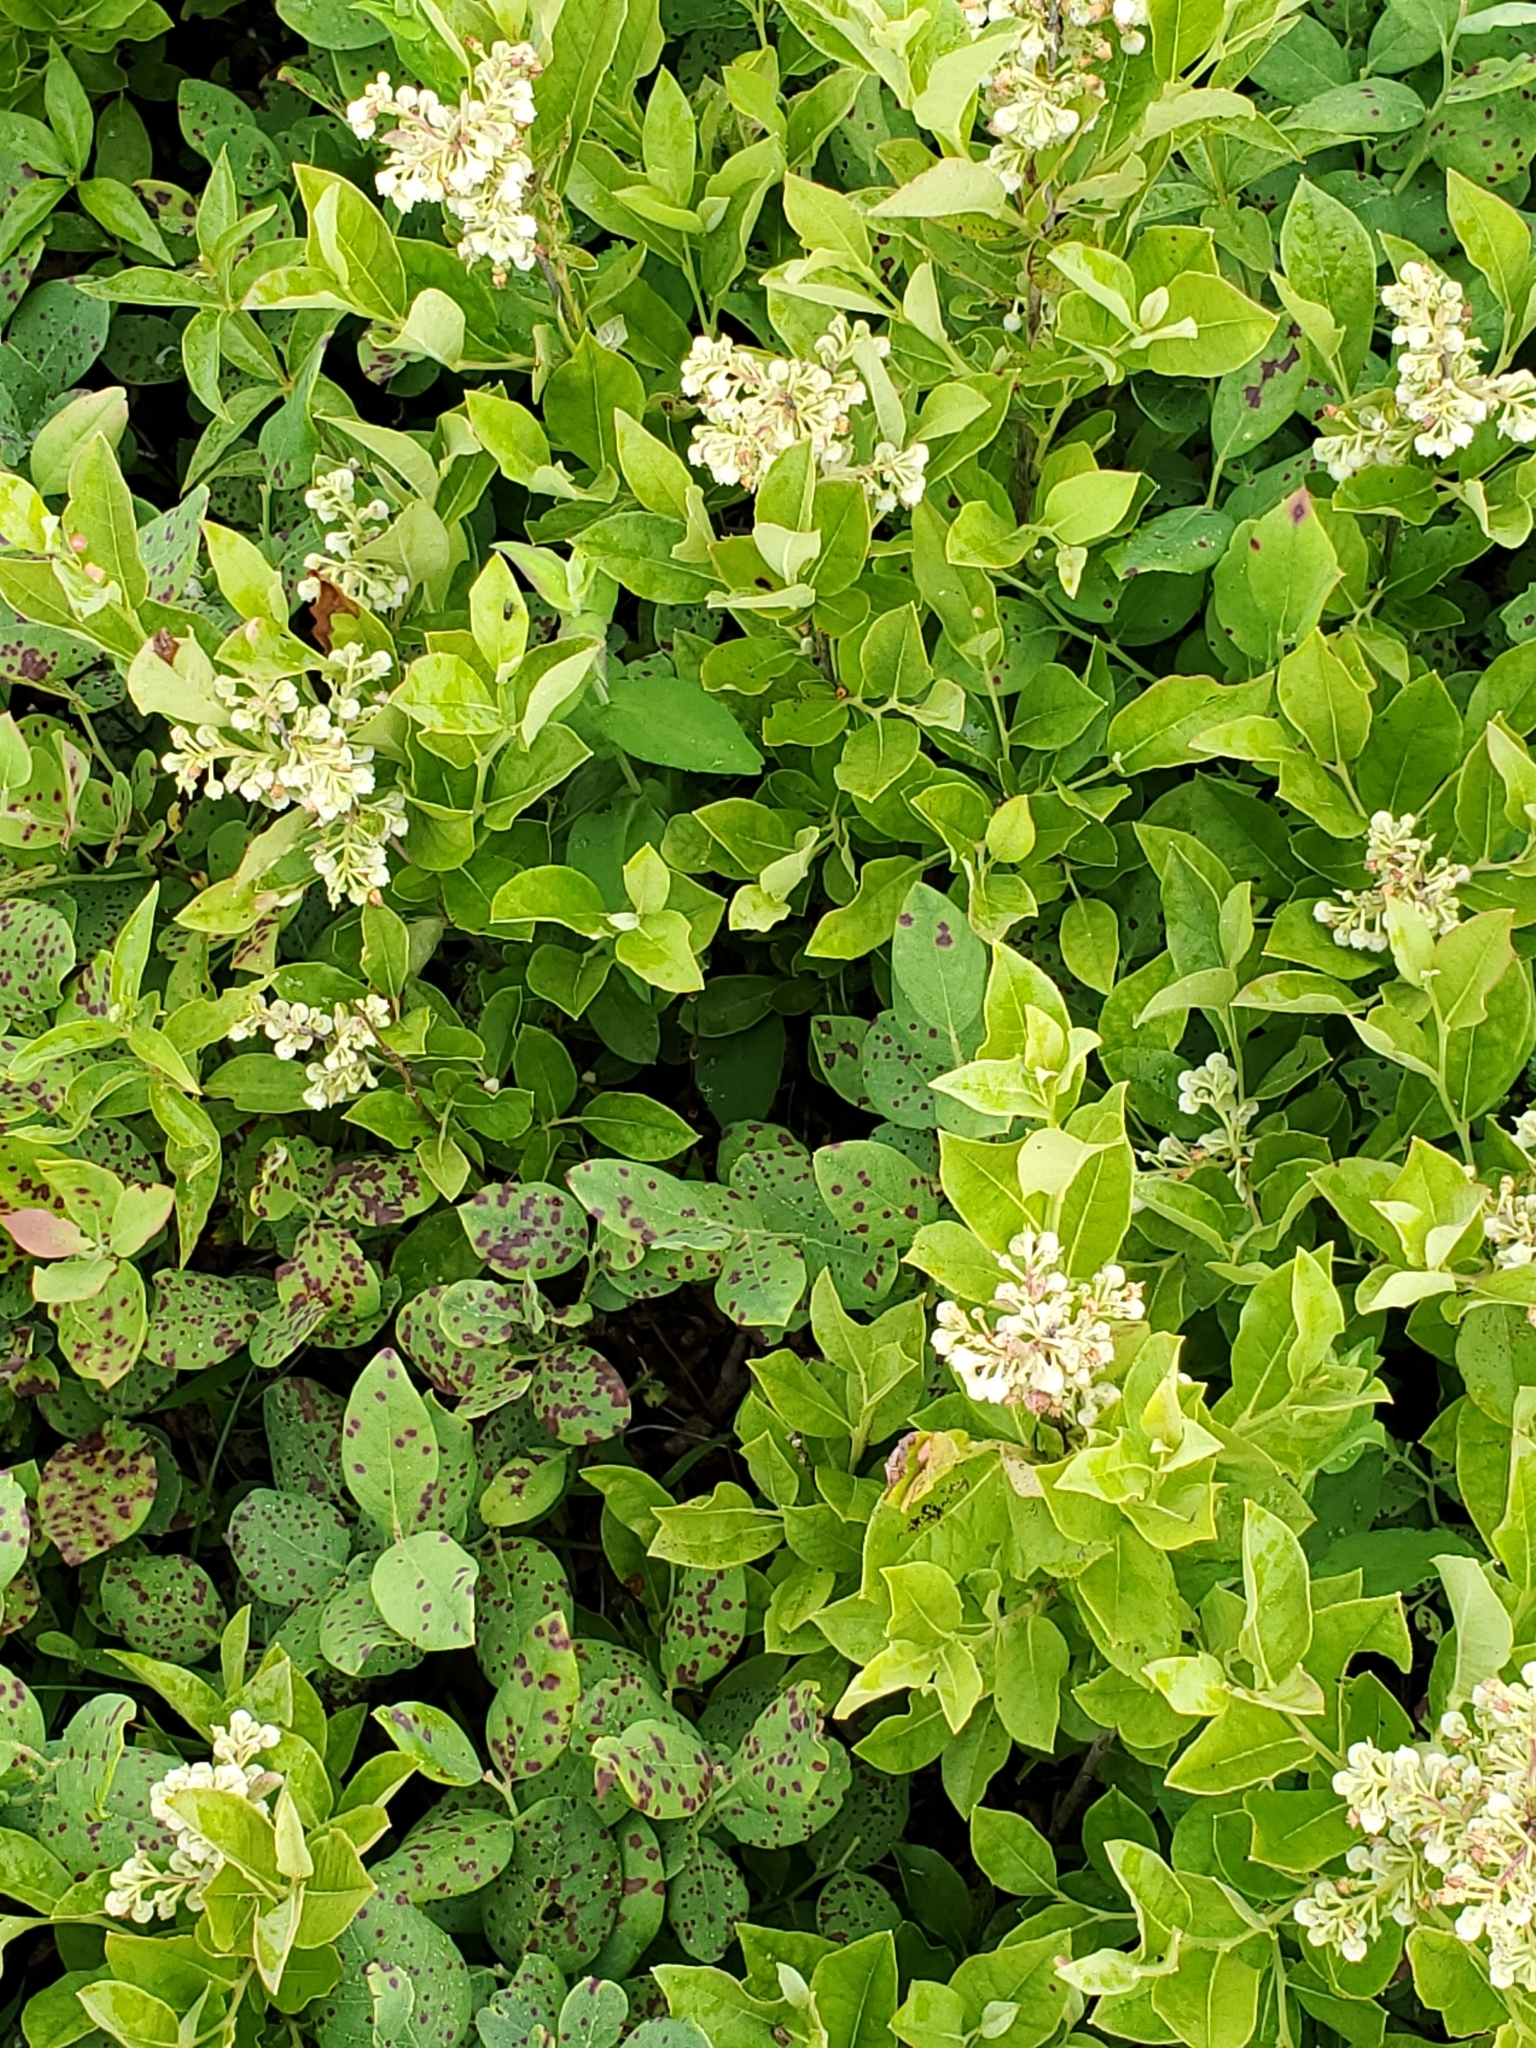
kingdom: Plantae
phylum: Tracheophyta
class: Magnoliopsida
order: Ericales
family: Ericaceae
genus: Lyonia
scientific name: Lyonia ligustrina
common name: Maleberry
